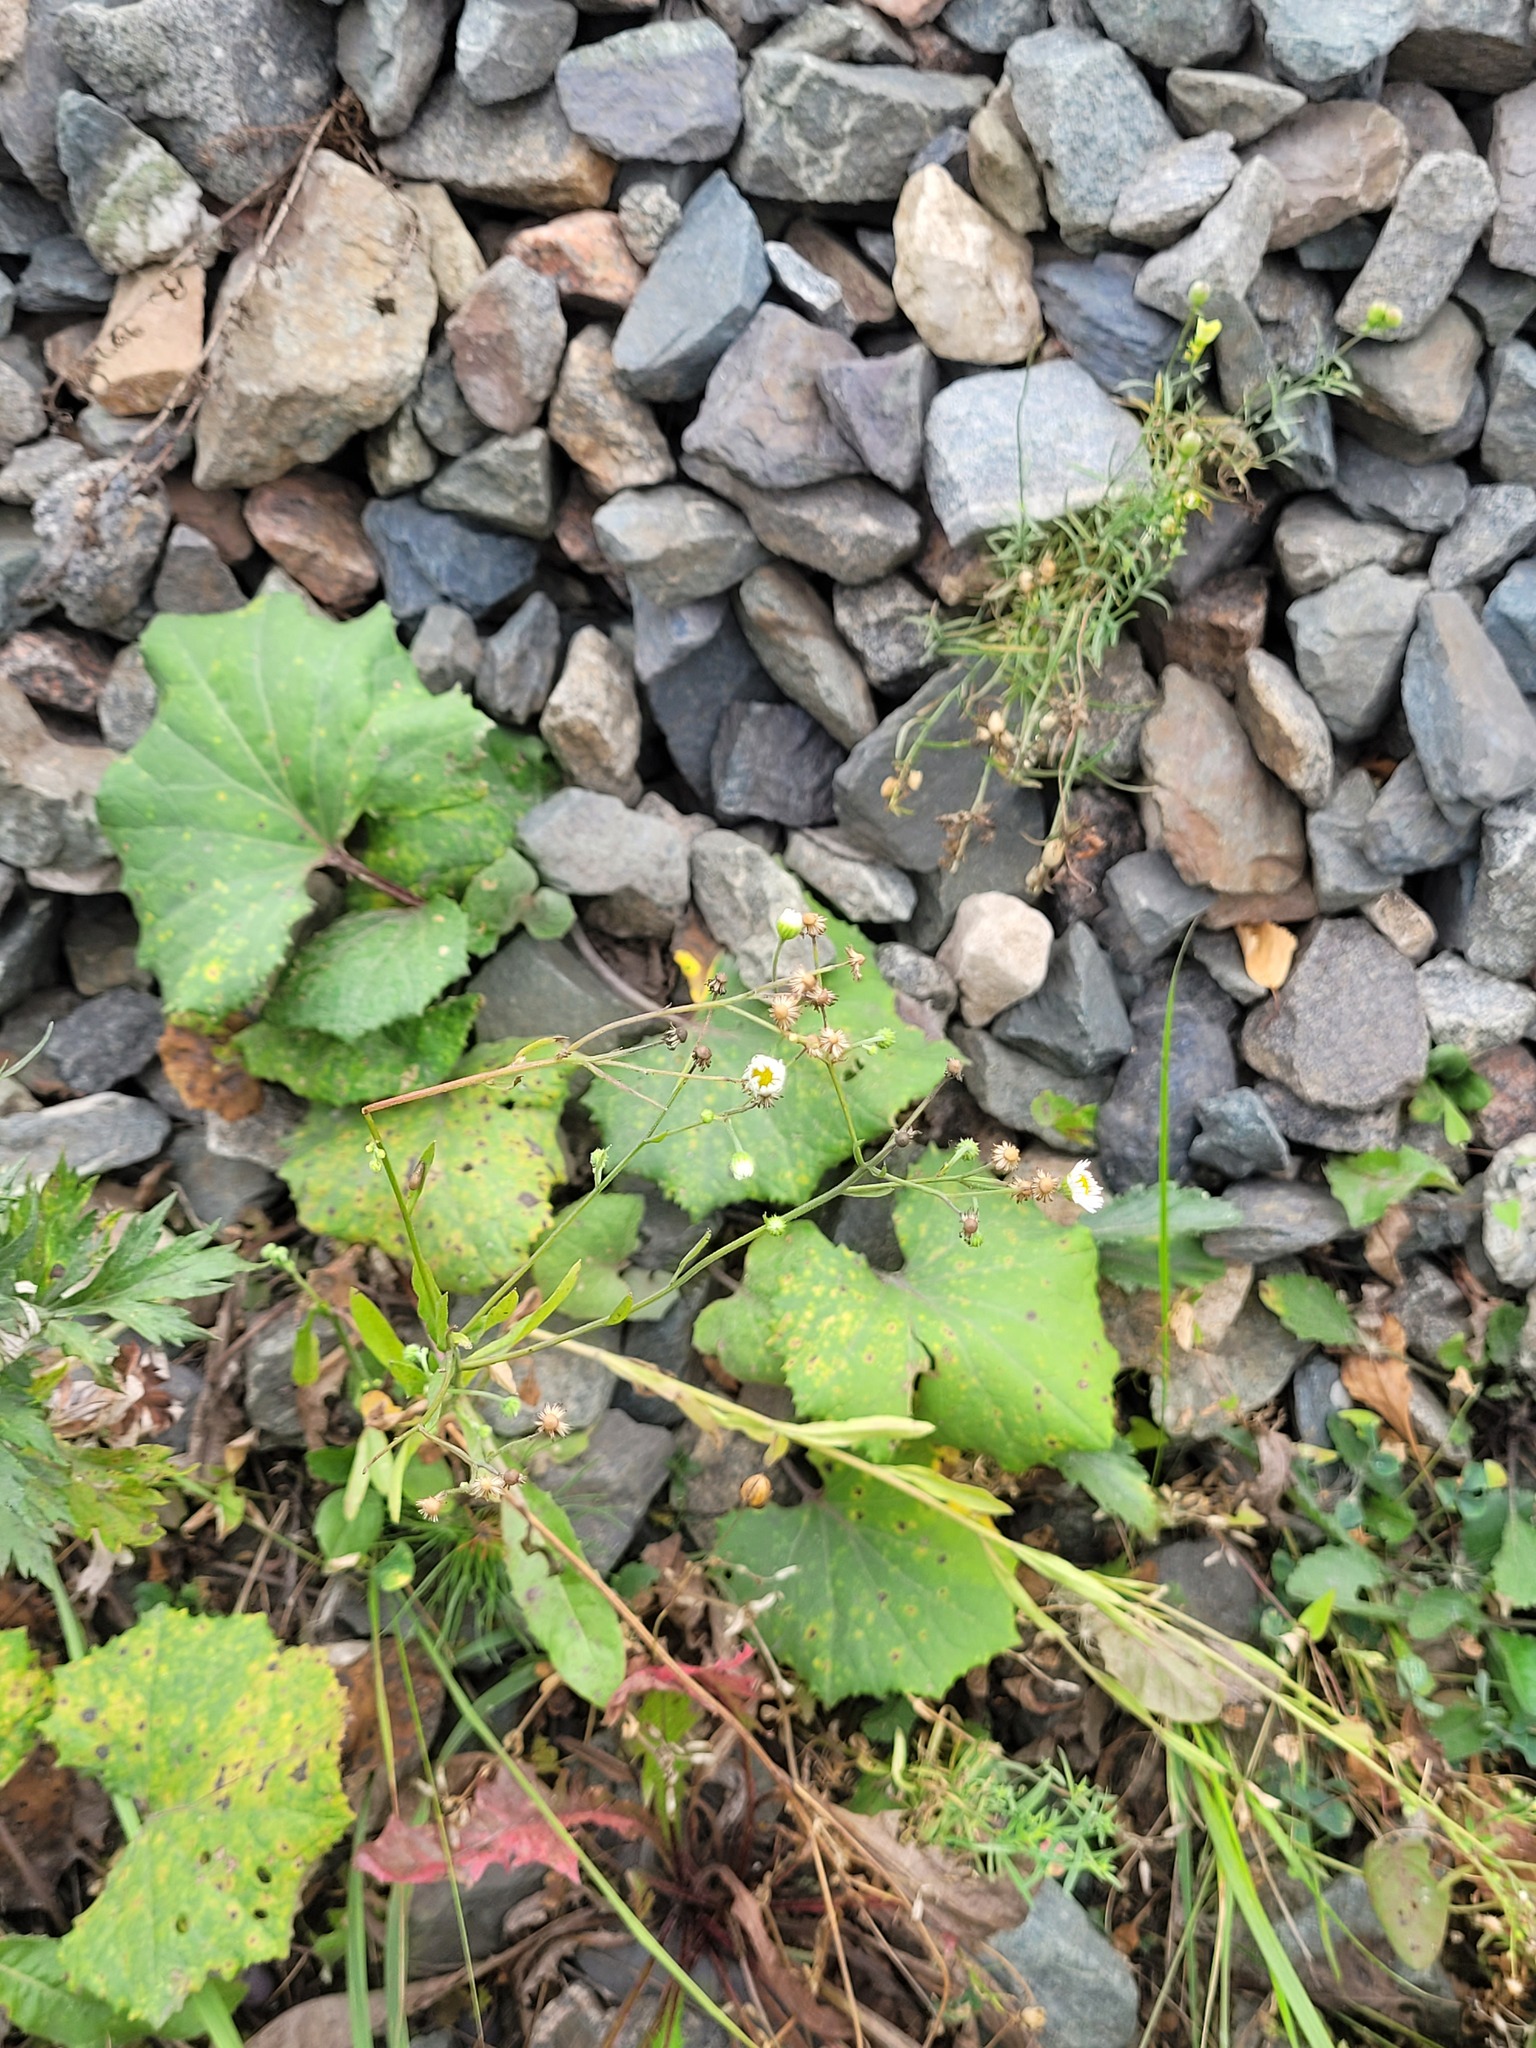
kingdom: Plantae
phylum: Tracheophyta
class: Magnoliopsida
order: Asterales
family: Asteraceae
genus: Erigeron
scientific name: Erigeron annuus
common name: Tall fleabane
